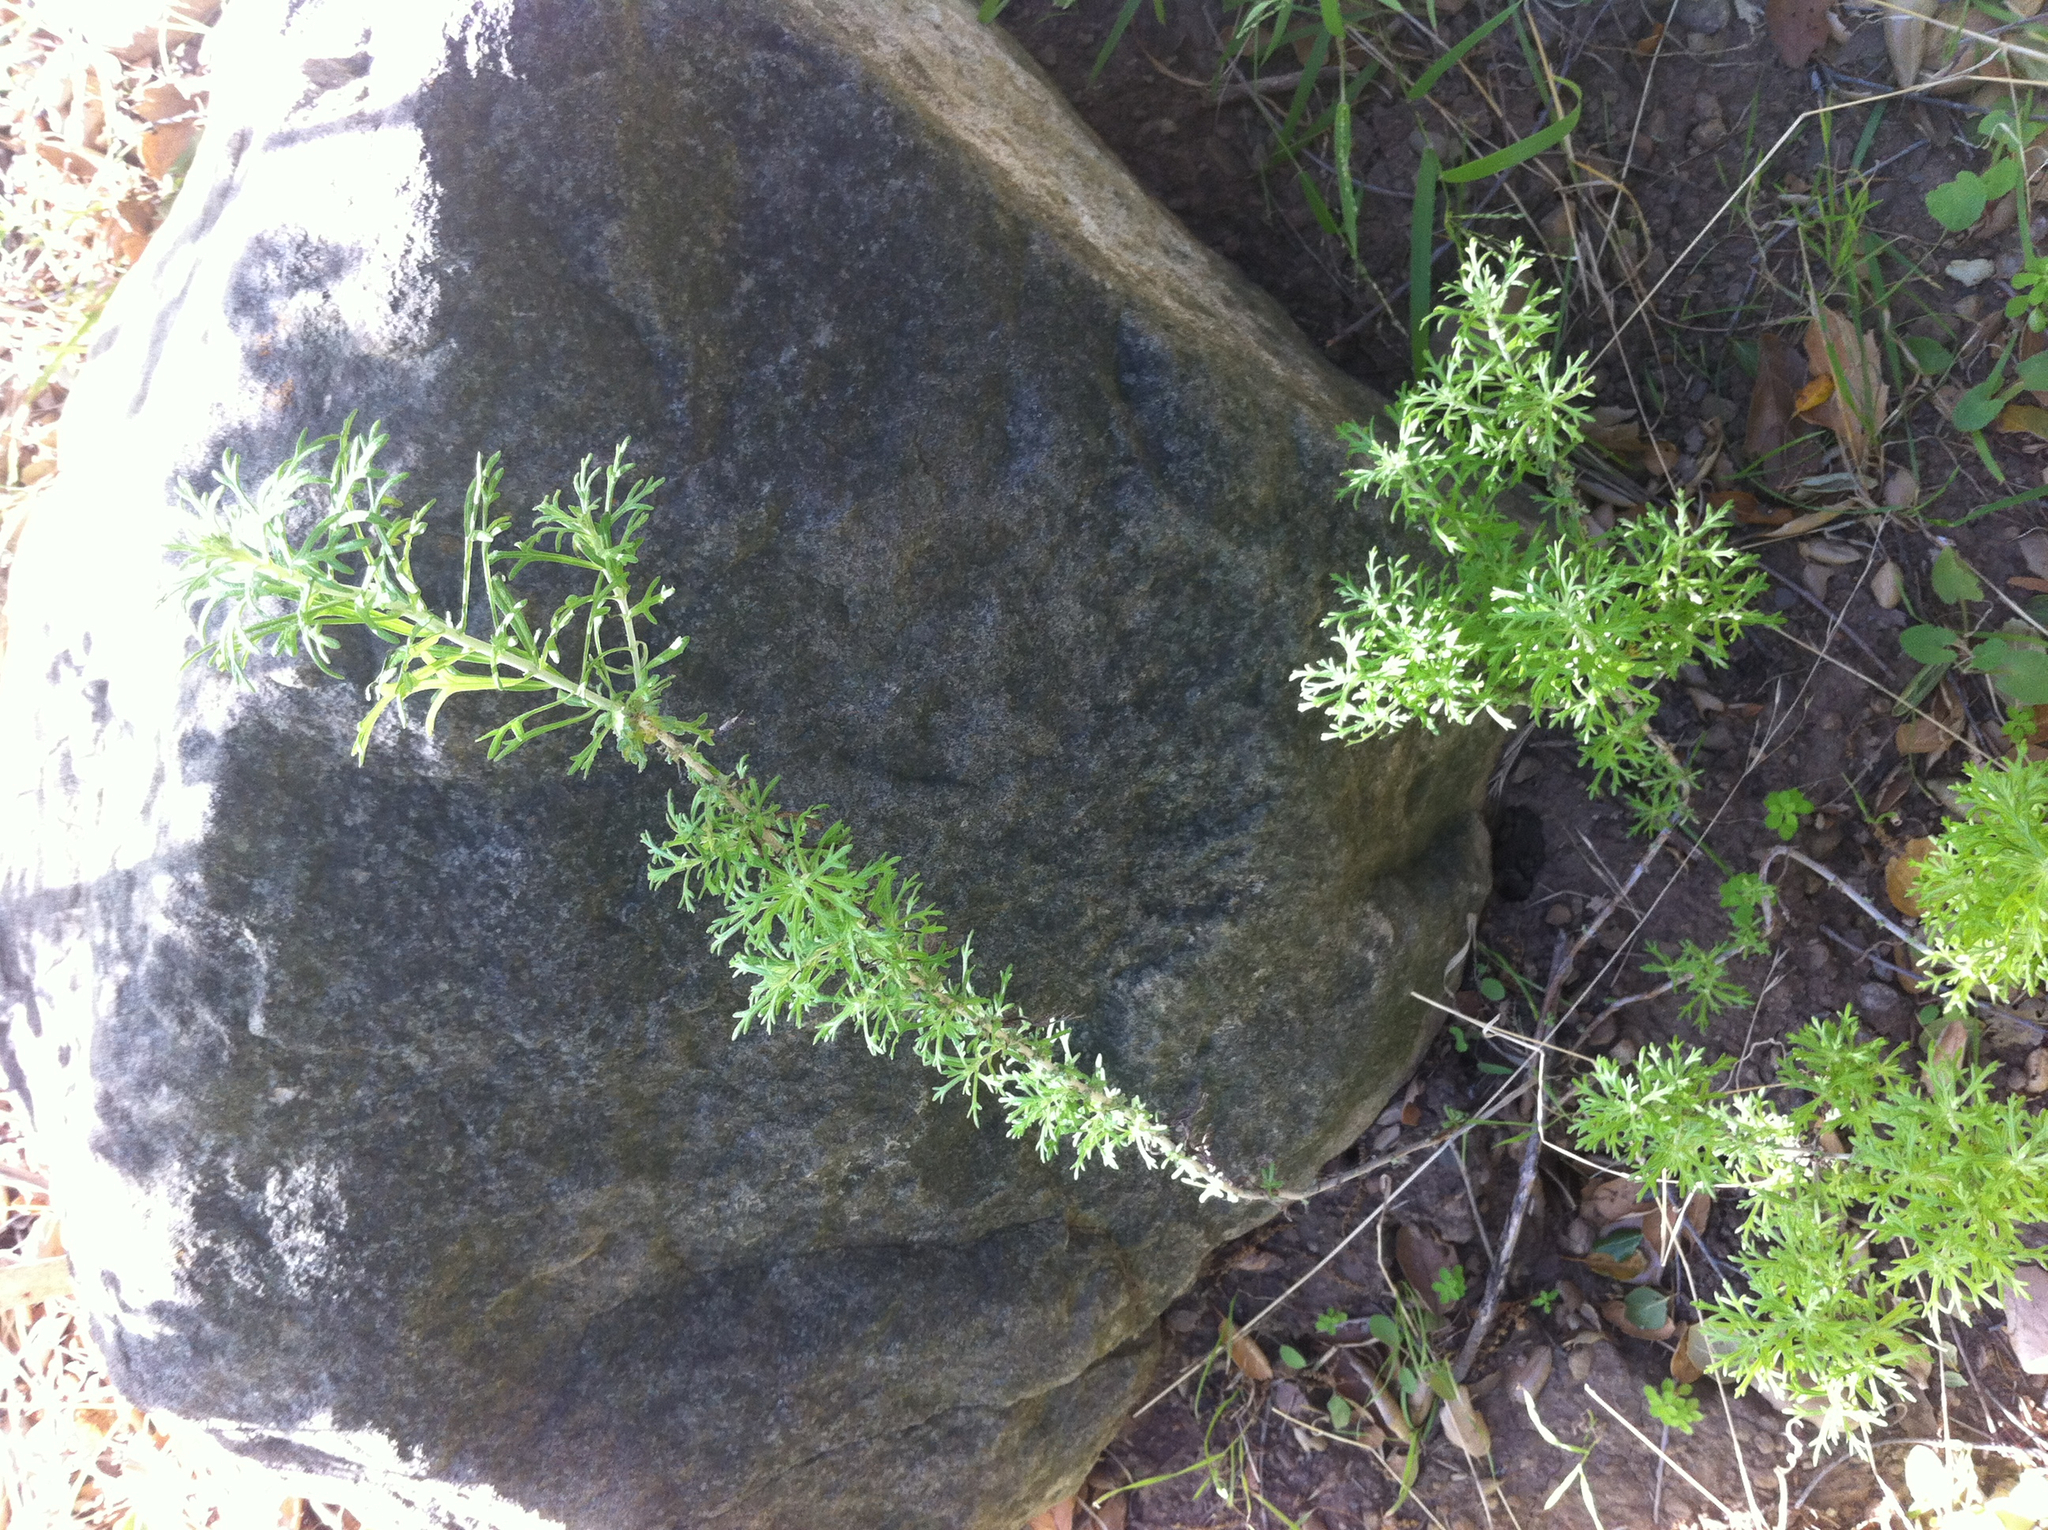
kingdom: Plantae
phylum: Tracheophyta
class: Magnoliopsida
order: Asterales
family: Asteraceae
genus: Eriophyllum
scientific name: Eriophyllum confertiflorum
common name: Golden-yarrow
